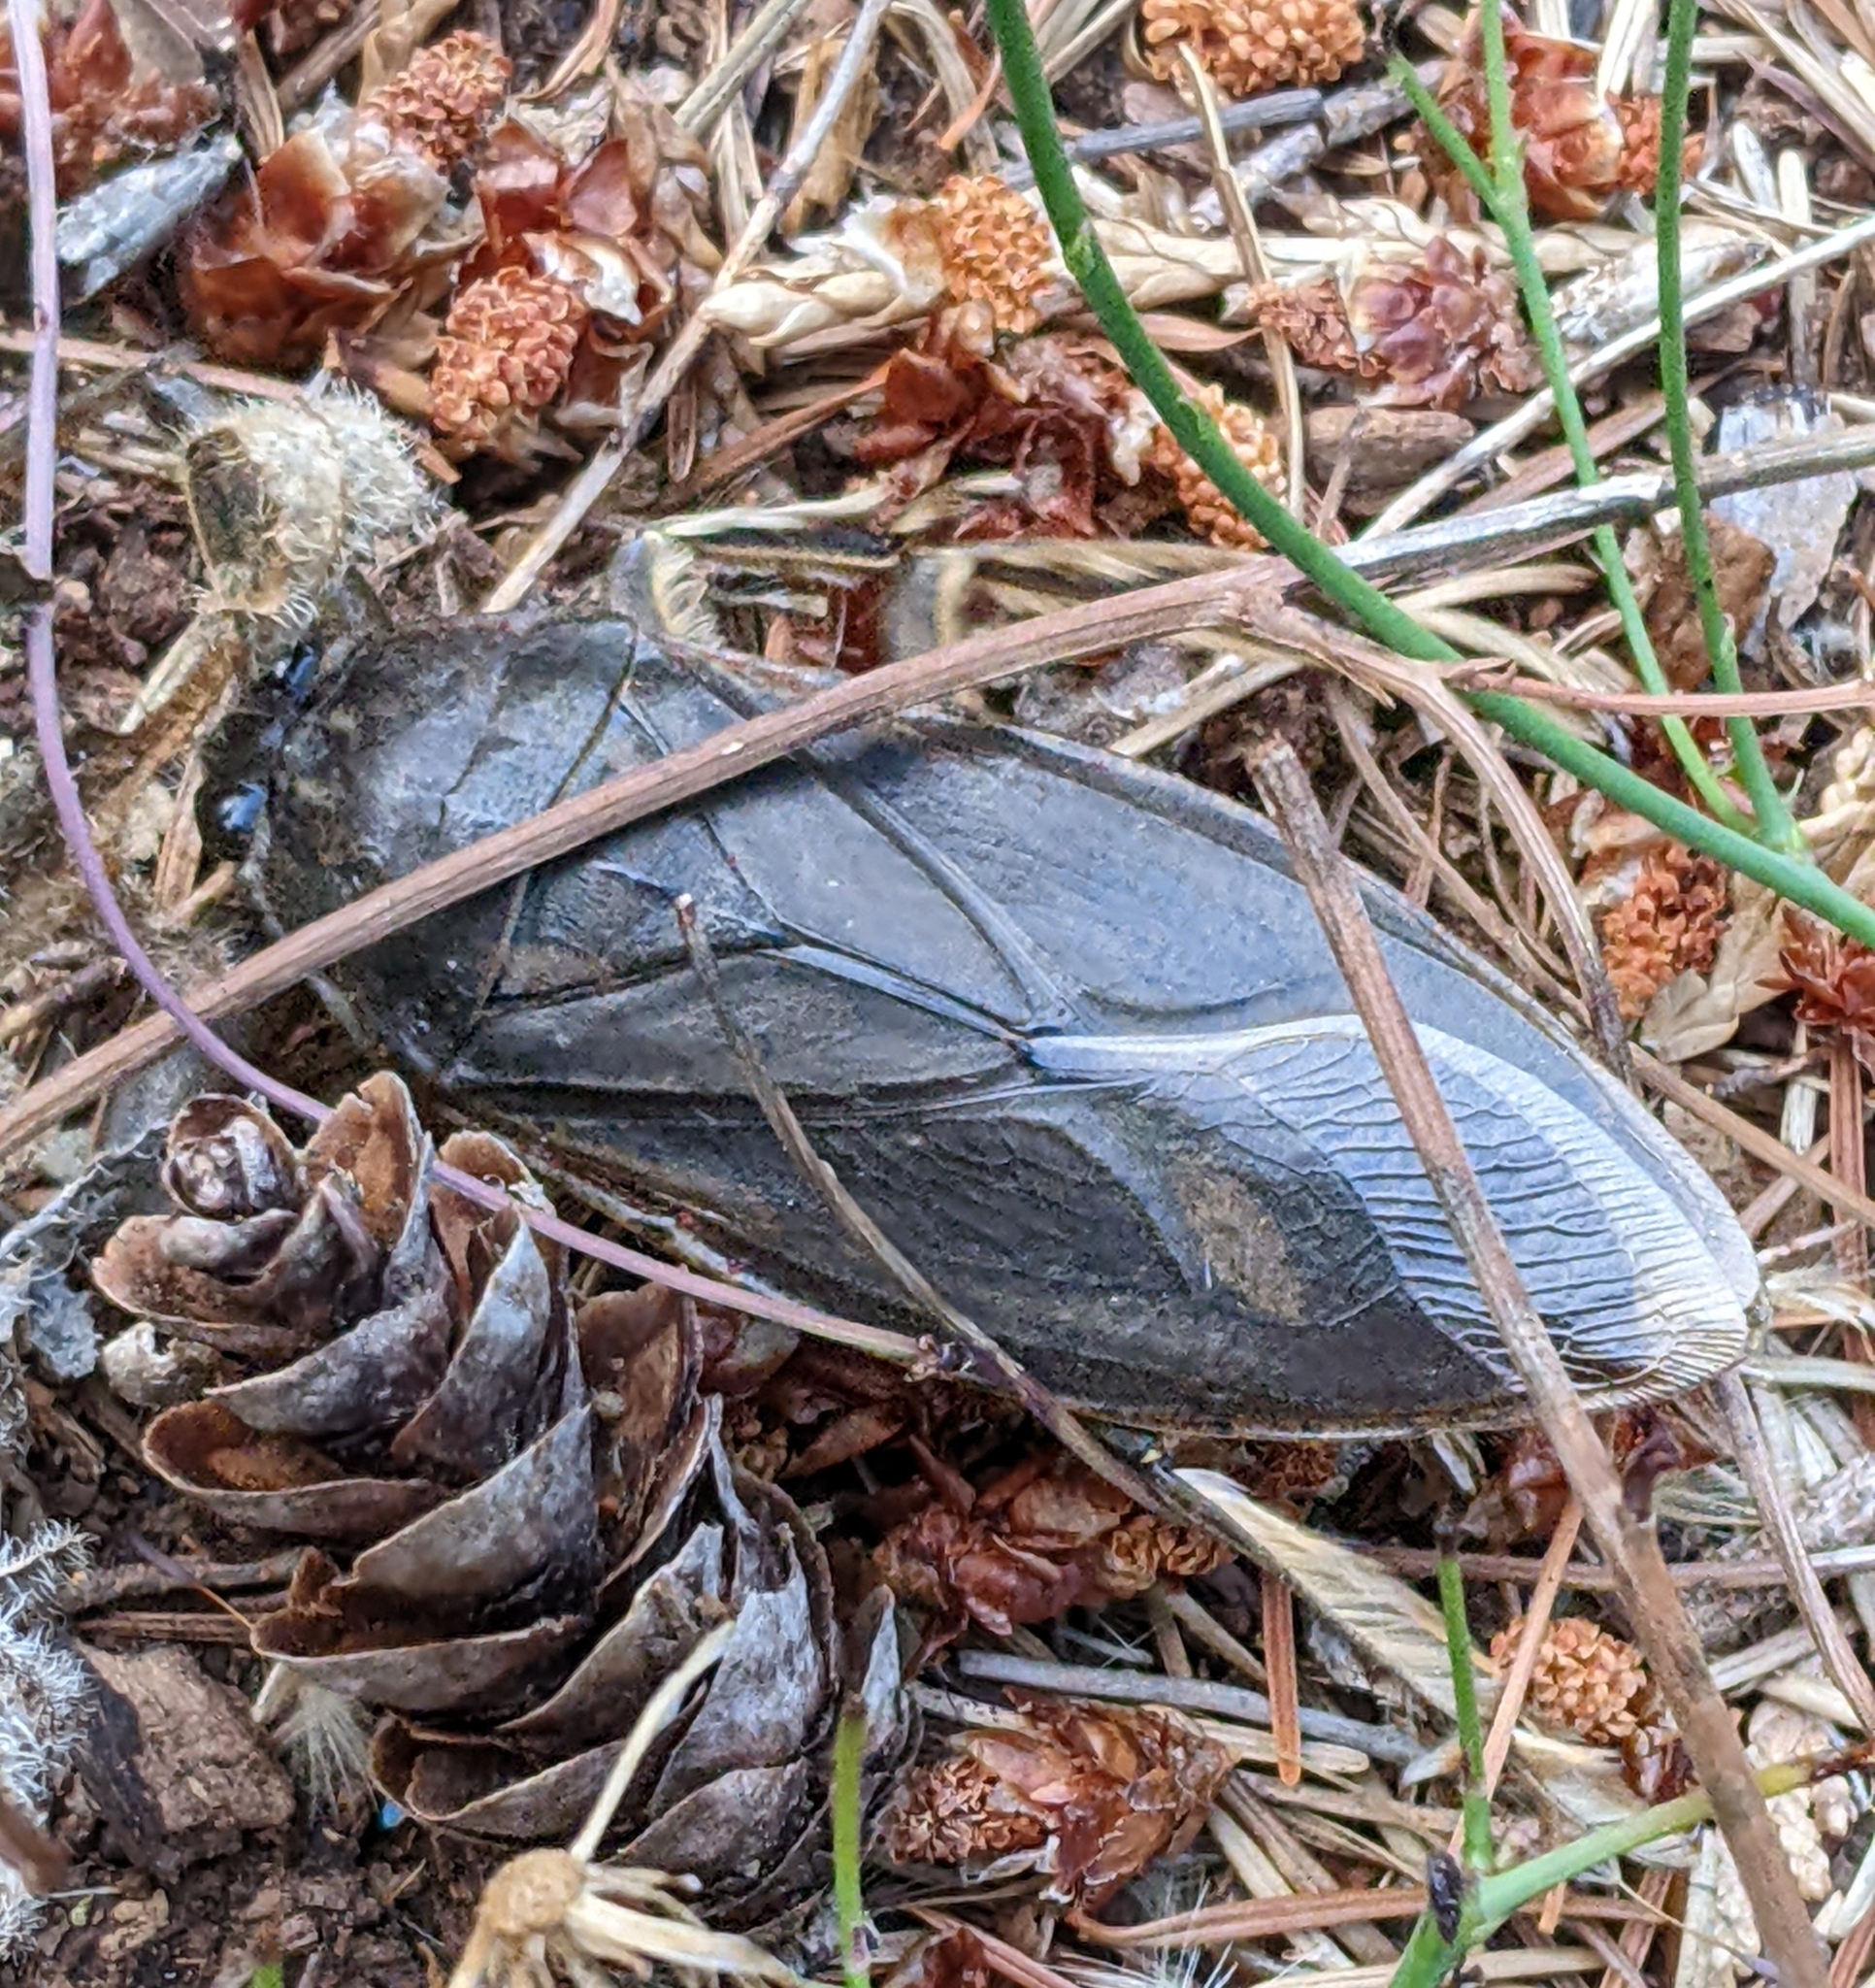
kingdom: Animalia
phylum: Arthropoda
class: Insecta
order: Hemiptera
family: Belostomatidae
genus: Lethocerus
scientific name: Lethocerus americanus
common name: Giant water bug
